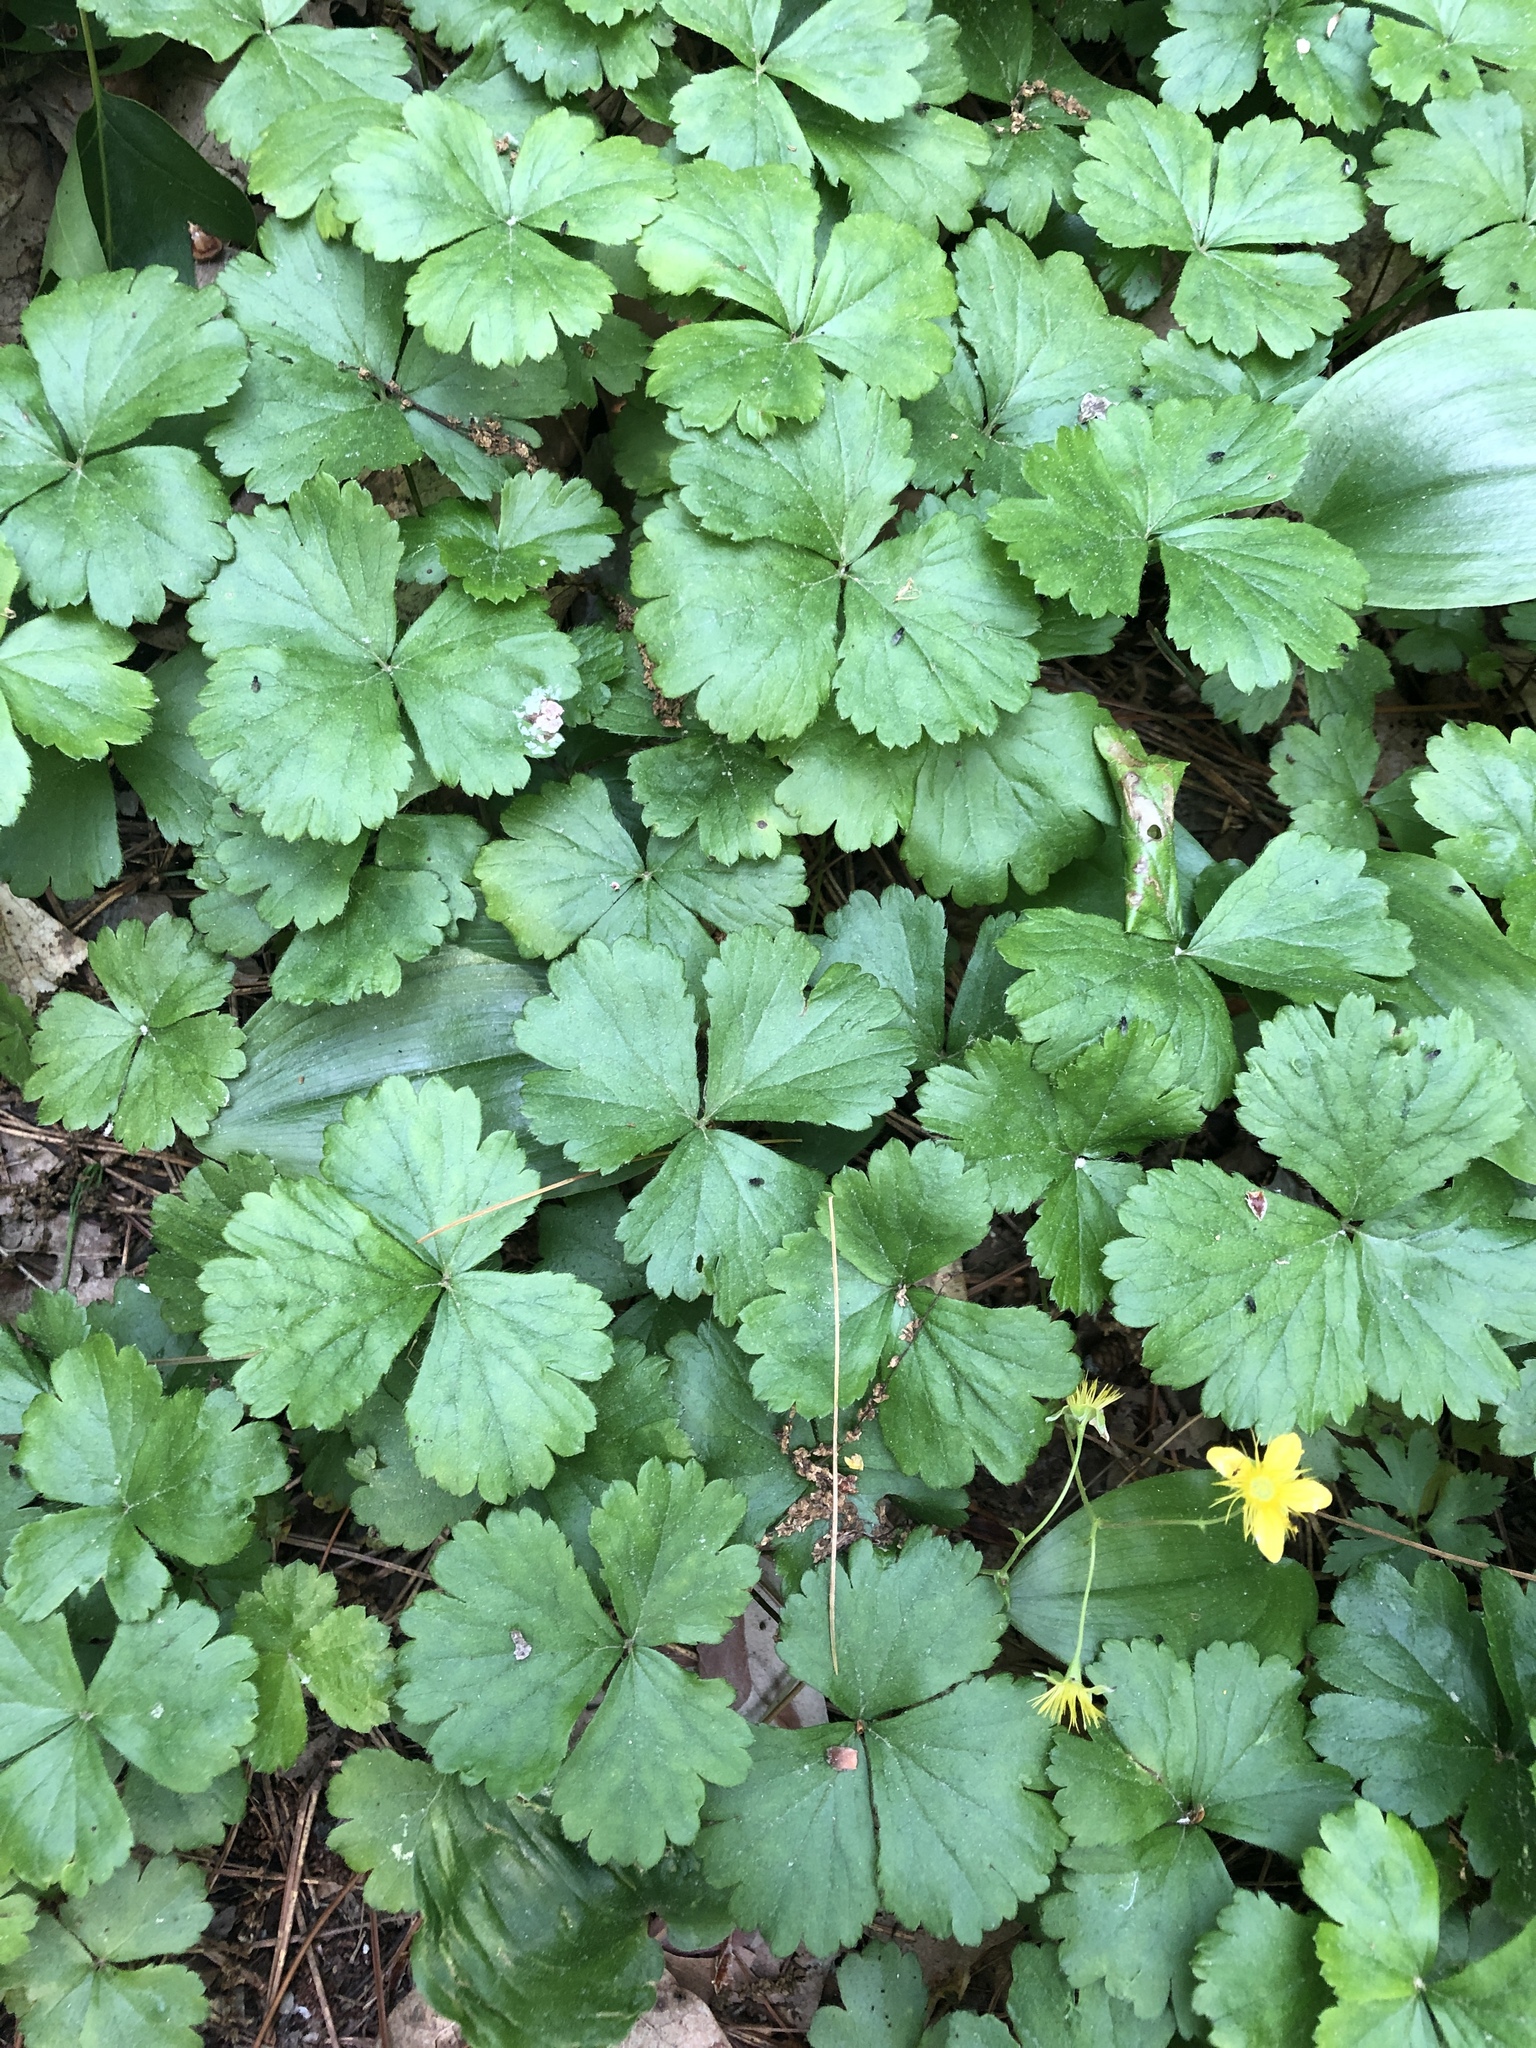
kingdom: Plantae
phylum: Tracheophyta
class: Magnoliopsida
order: Rosales
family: Rosaceae
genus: Geum
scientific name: Geum fragarioides
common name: Appalachian barren strawberry
